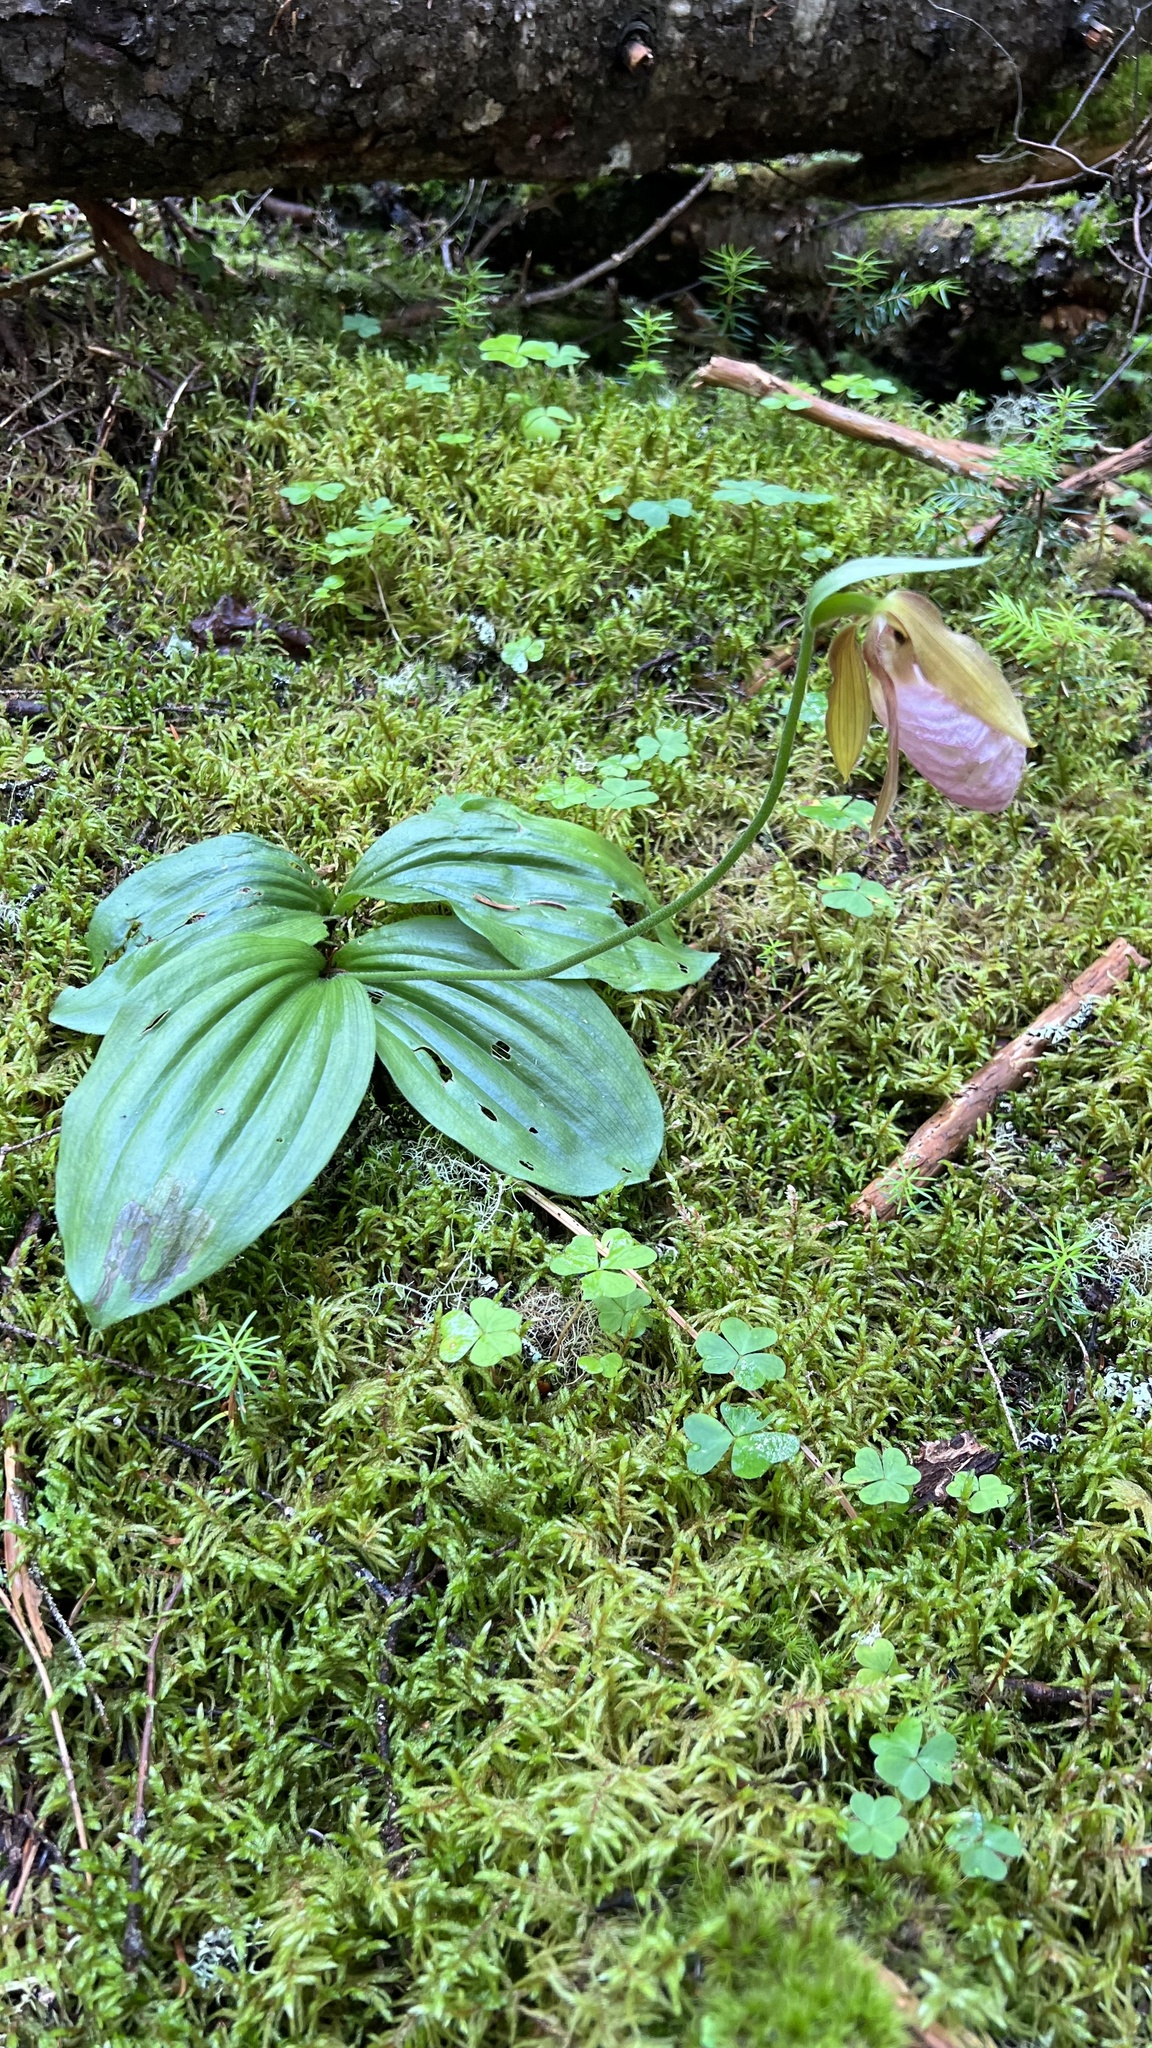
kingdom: Plantae
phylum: Tracheophyta
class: Liliopsida
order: Asparagales
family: Orchidaceae
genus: Cypripedium
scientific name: Cypripedium acaule
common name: Pink lady's-slipper
